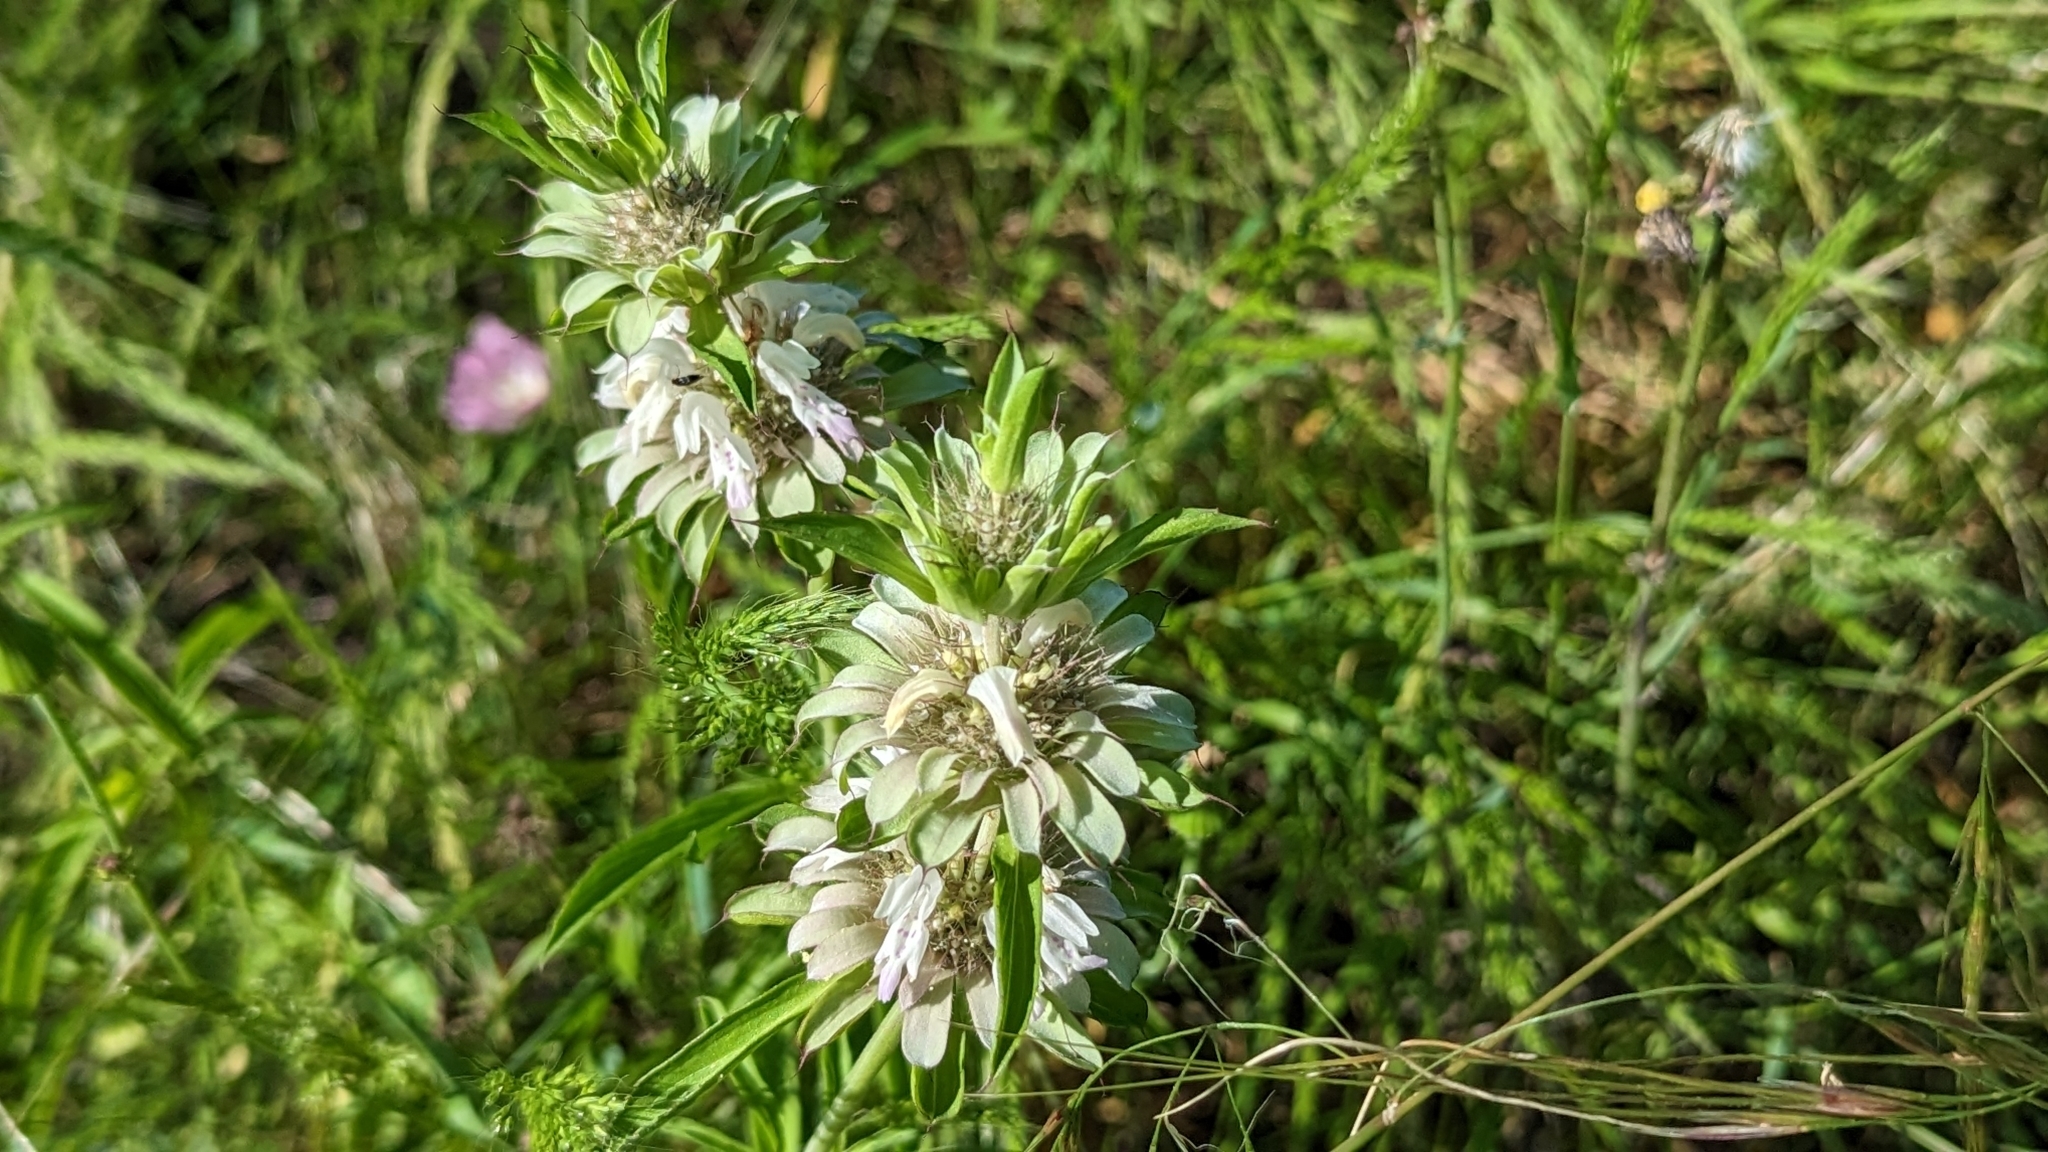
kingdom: Plantae
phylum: Tracheophyta
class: Magnoliopsida
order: Lamiales
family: Lamiaceae
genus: Monarda
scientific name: Monarda citriodora
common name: Lemon beebalm
